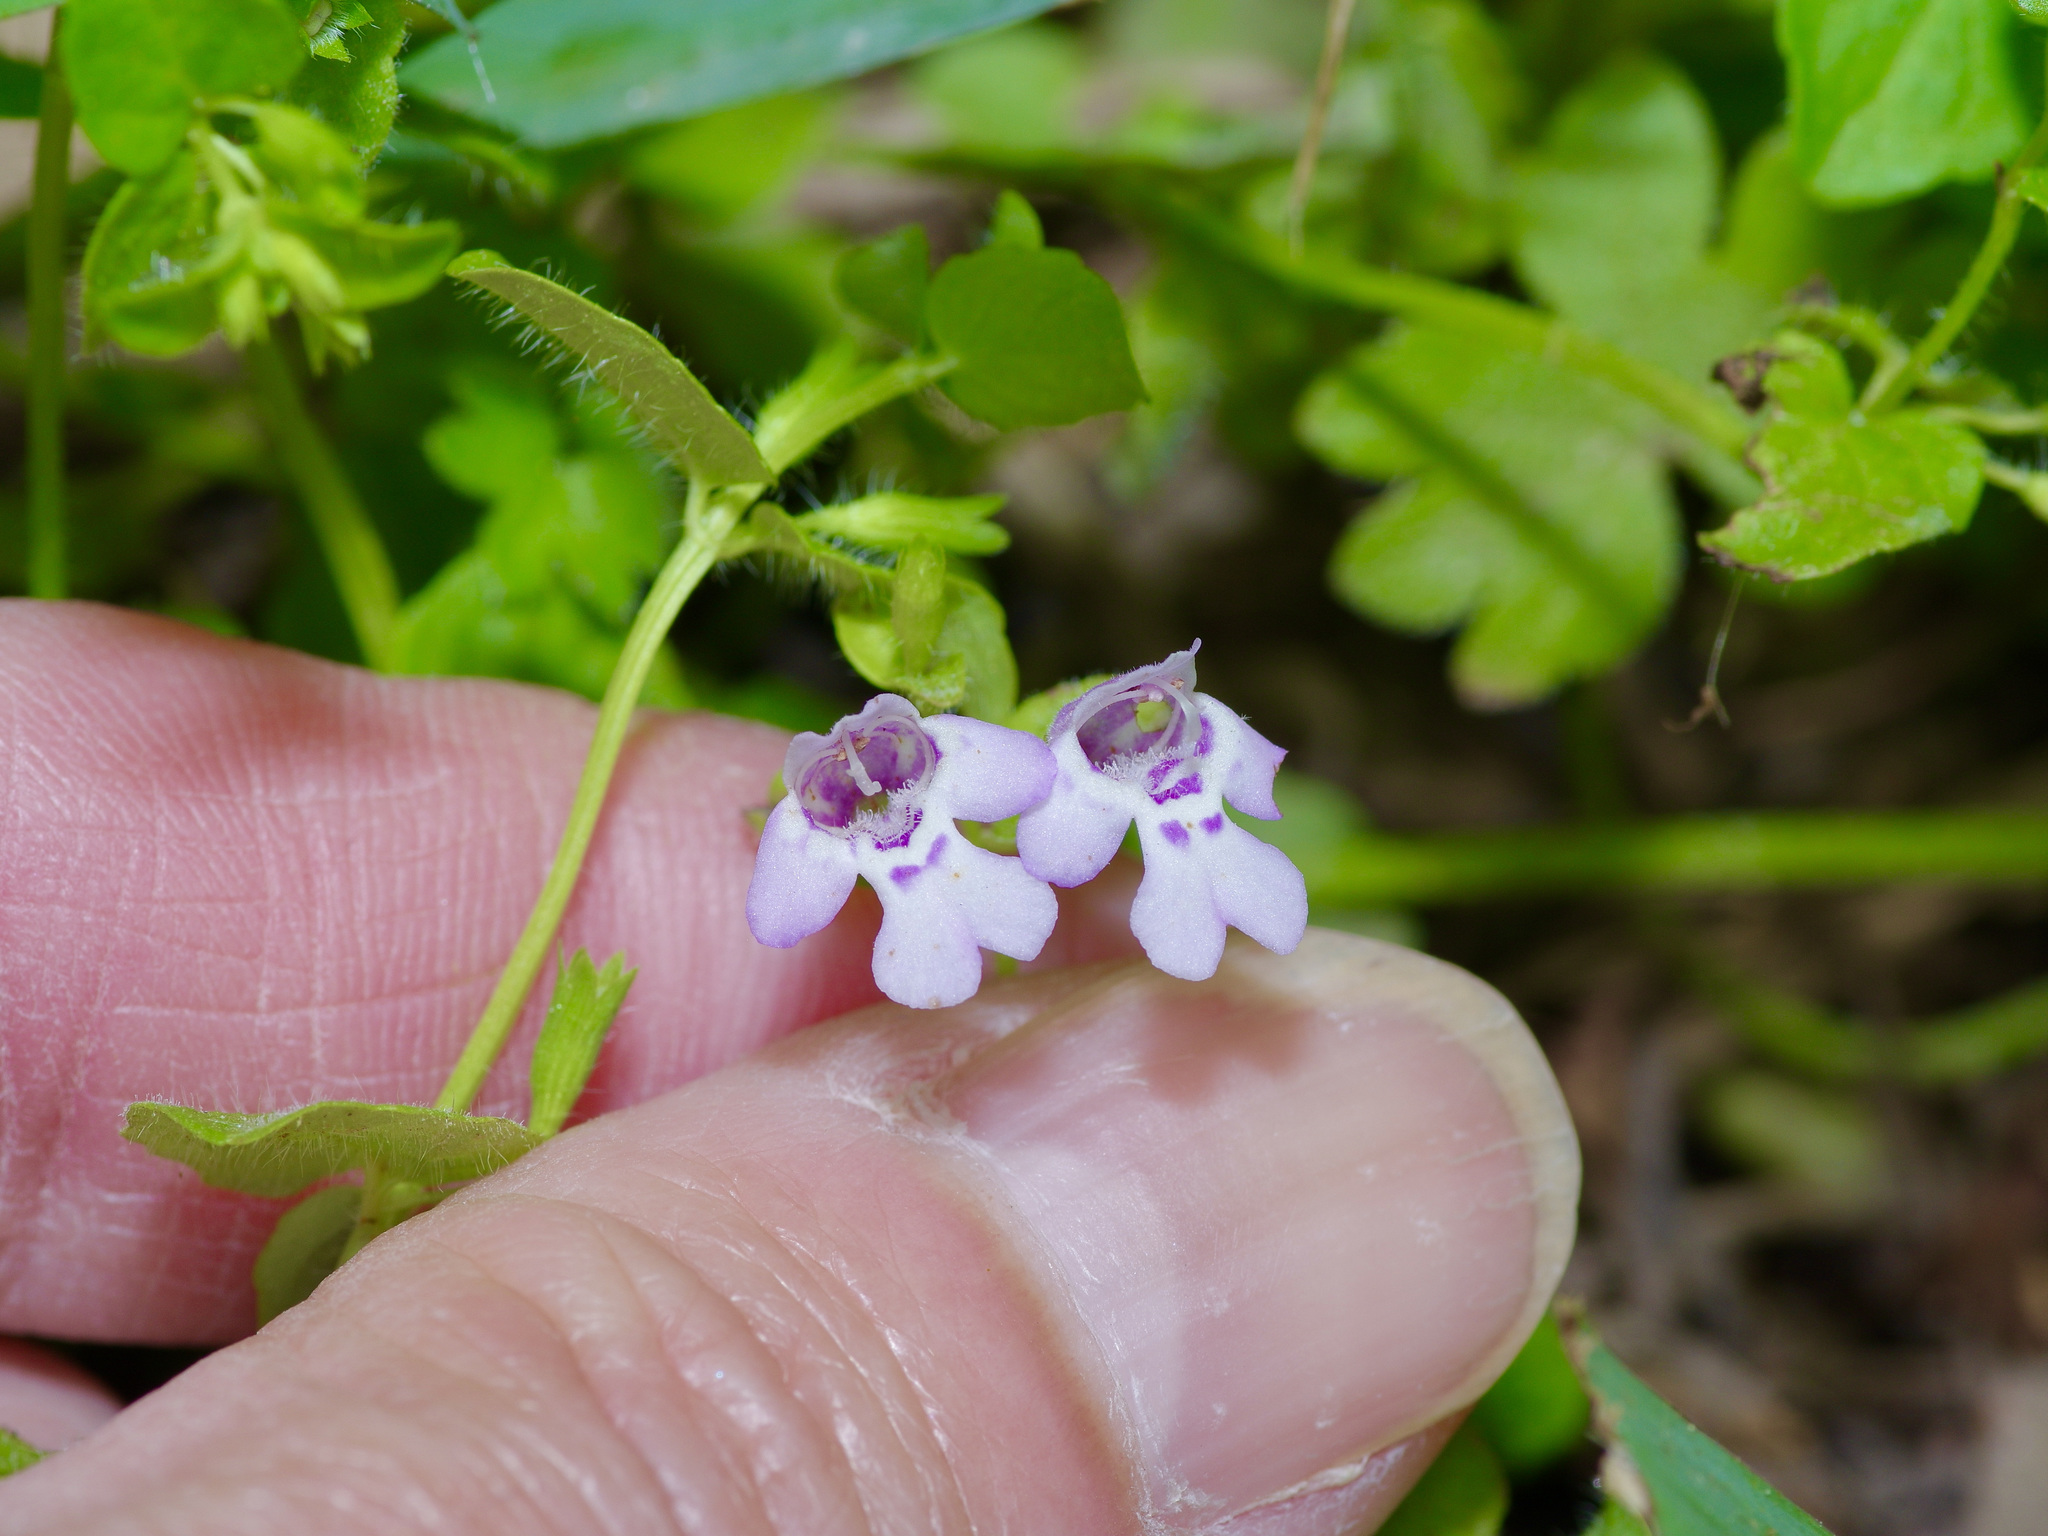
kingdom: Plantae
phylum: Tracheophyta
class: Magnoliopsida
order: Lamiales
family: Lamiaceae
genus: Clinopodium
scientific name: Clinopodium brownei
